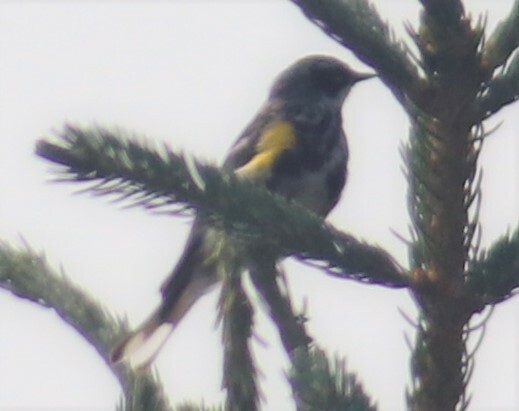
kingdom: Animalia
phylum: Chordata
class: Aves
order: Passeriformes
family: Parulidae
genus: Setophaga
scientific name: Setophaga coronata
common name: Myrtle warbler
